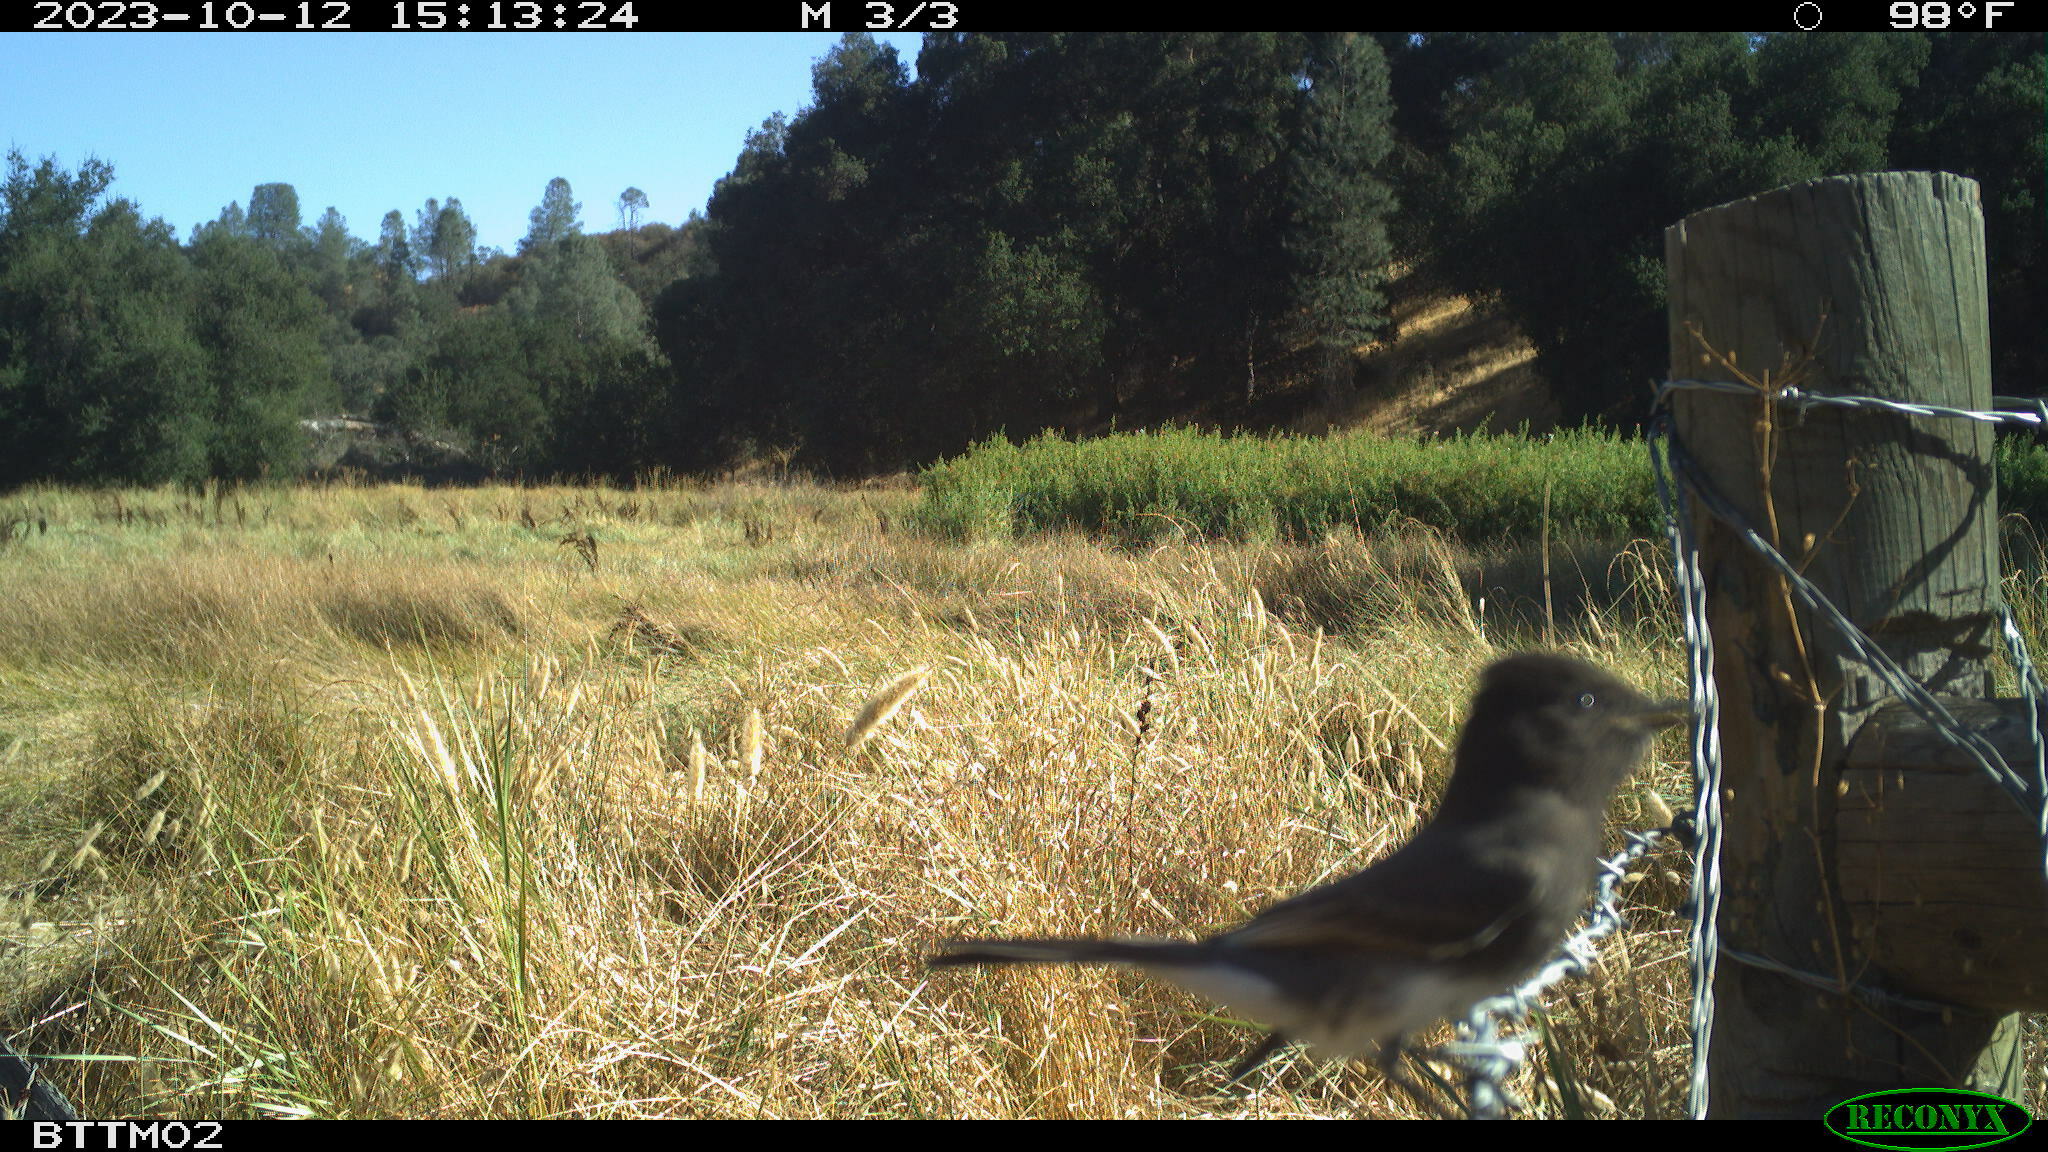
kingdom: Animalia
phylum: Chordata
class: Aves
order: Passeriformes
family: Tyrannidae
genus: Sayornis
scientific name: Sayornis nigricans
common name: Black phoebe
